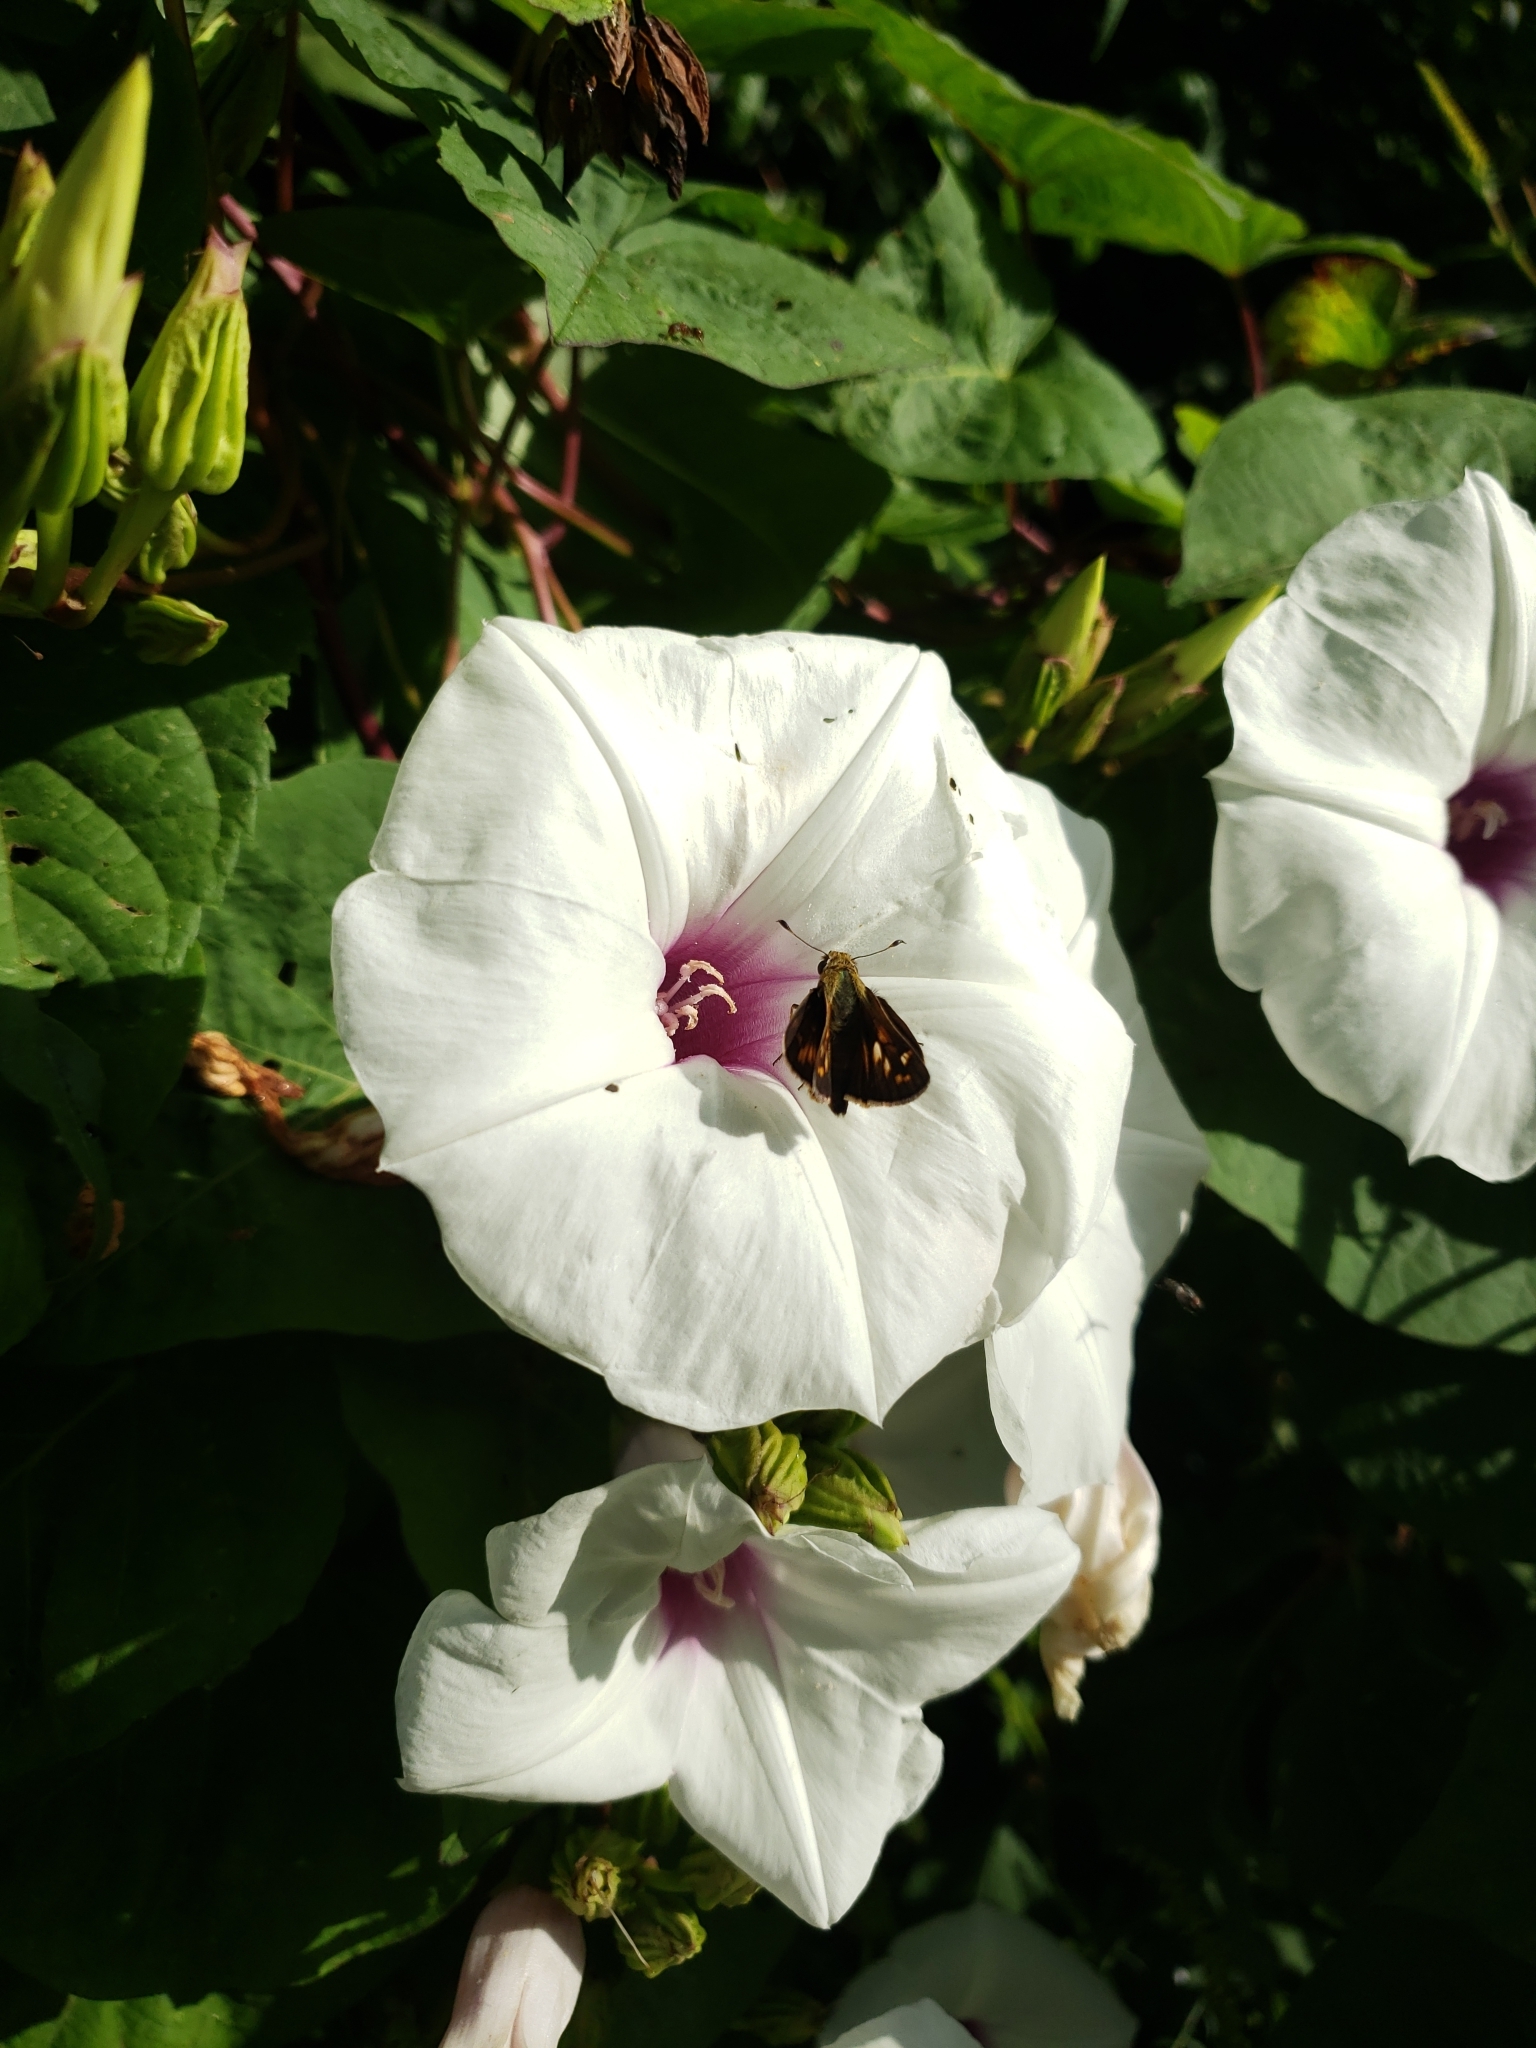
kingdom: Animalia
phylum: Arthropoda
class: Insecta
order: Lepidoptera
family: Hesperiidae
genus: Atalopedes
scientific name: Atalopedes
